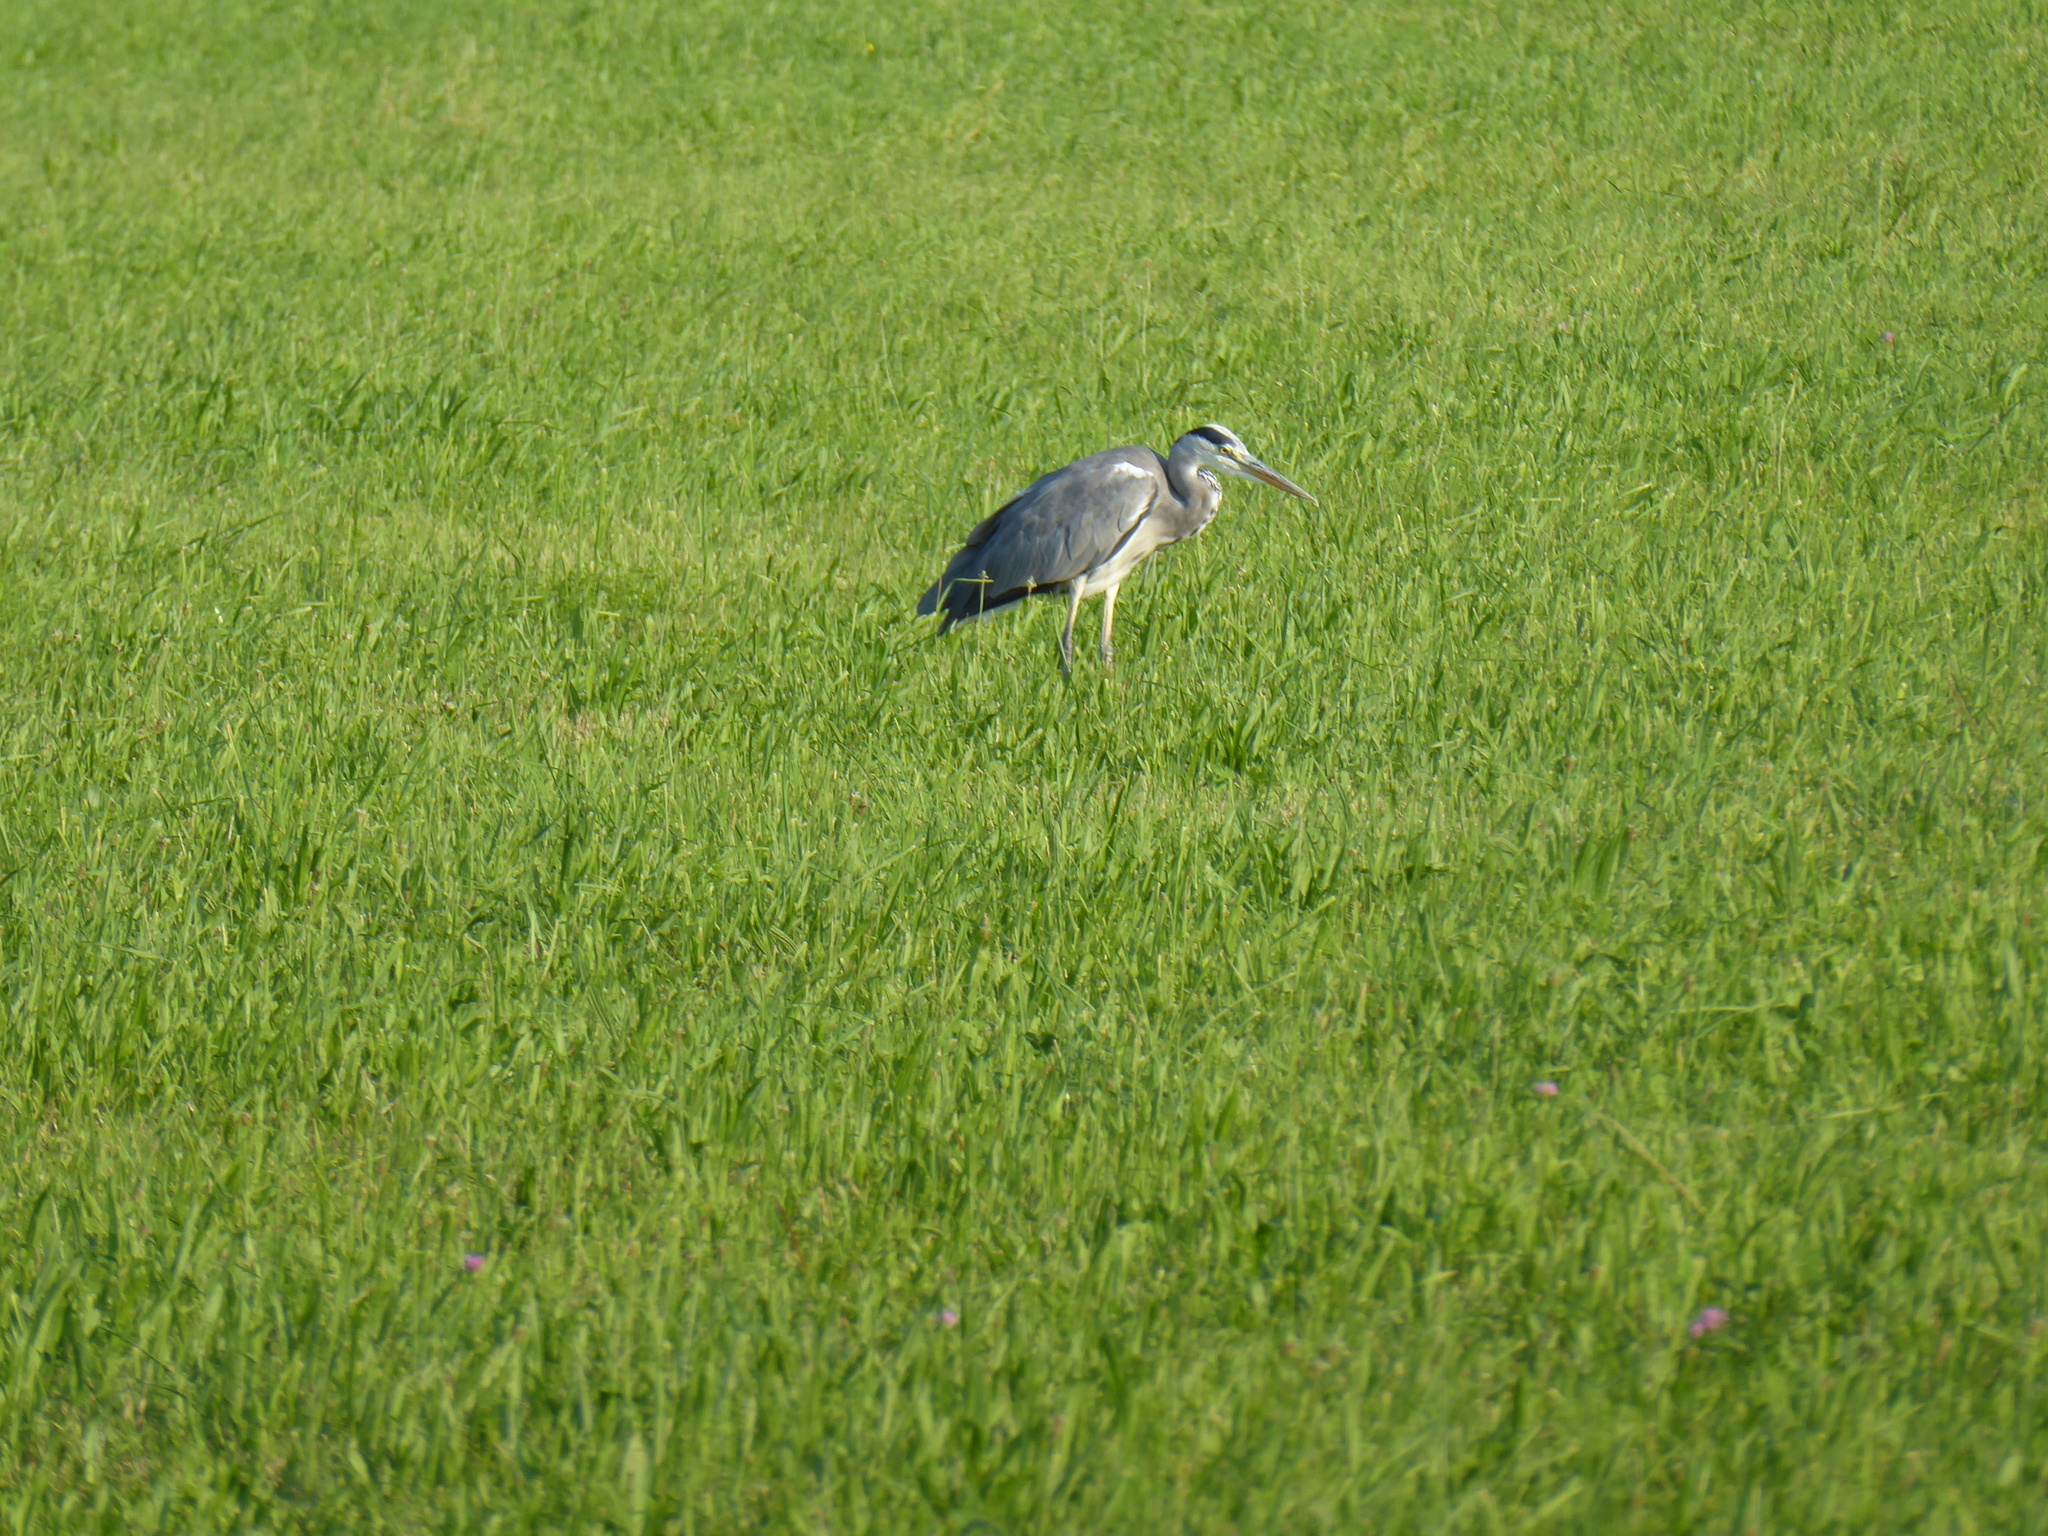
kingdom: Animalia
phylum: Chordata
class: Aves
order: Pelecaniformes
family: Ardeidae
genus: Ardea
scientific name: Ardea cinerea
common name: Grey heron
